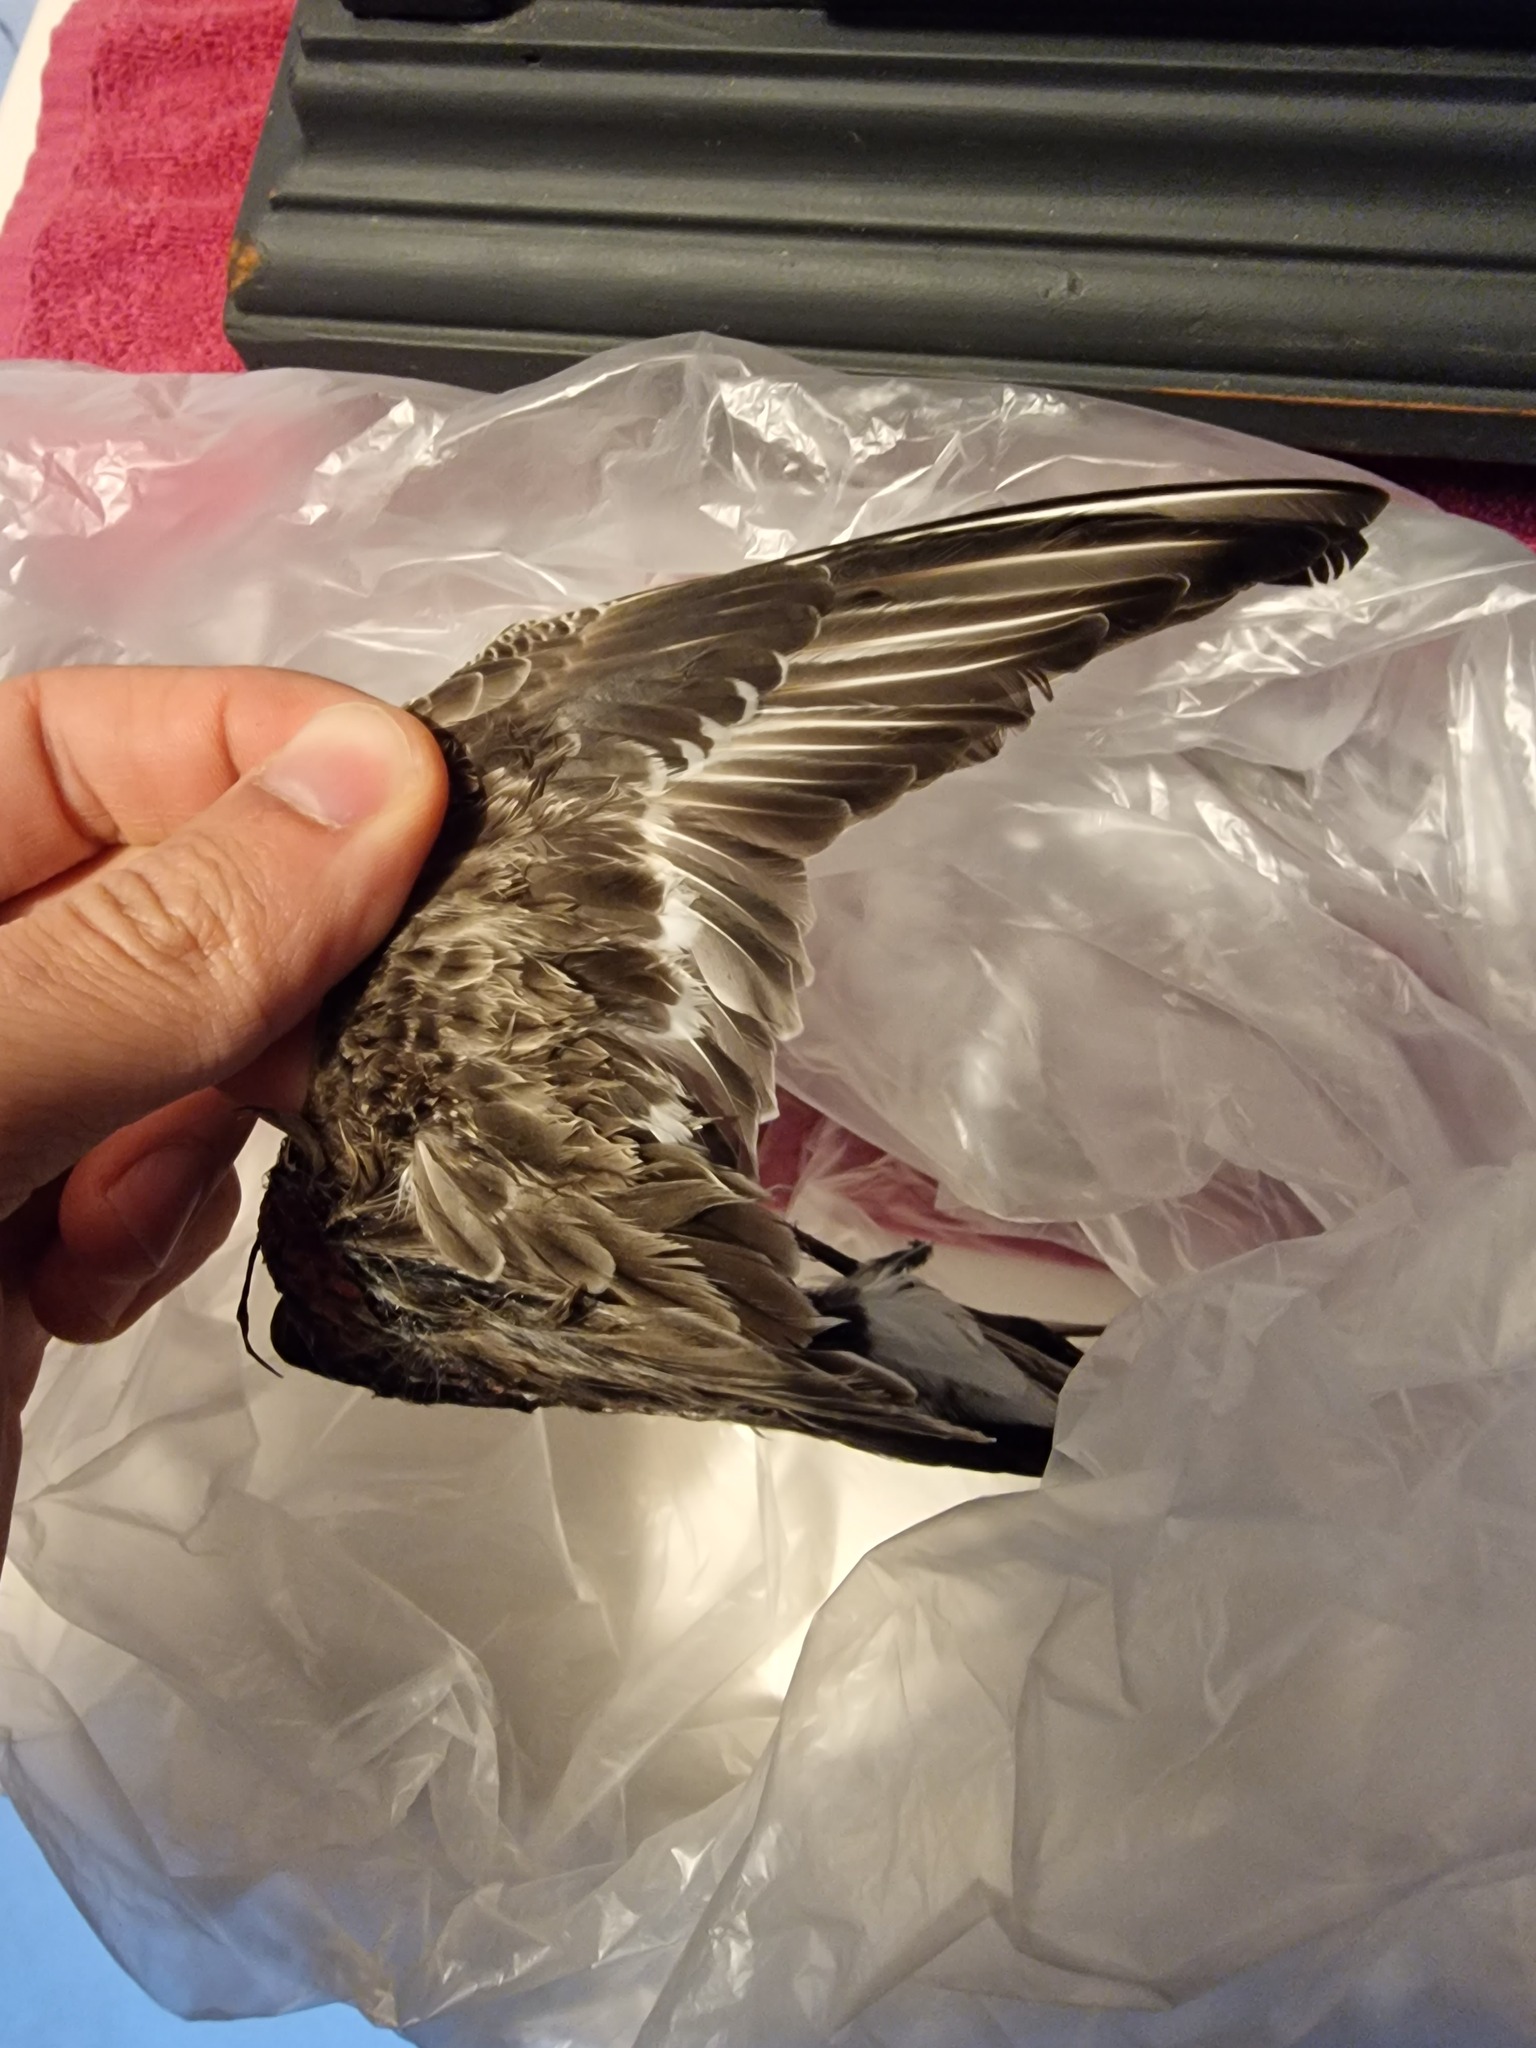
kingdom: Animalia
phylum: Chordata
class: Aves
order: Charadriiformes
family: Scolopacidae
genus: Calidris
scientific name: Calidris alpina
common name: Dunlin
